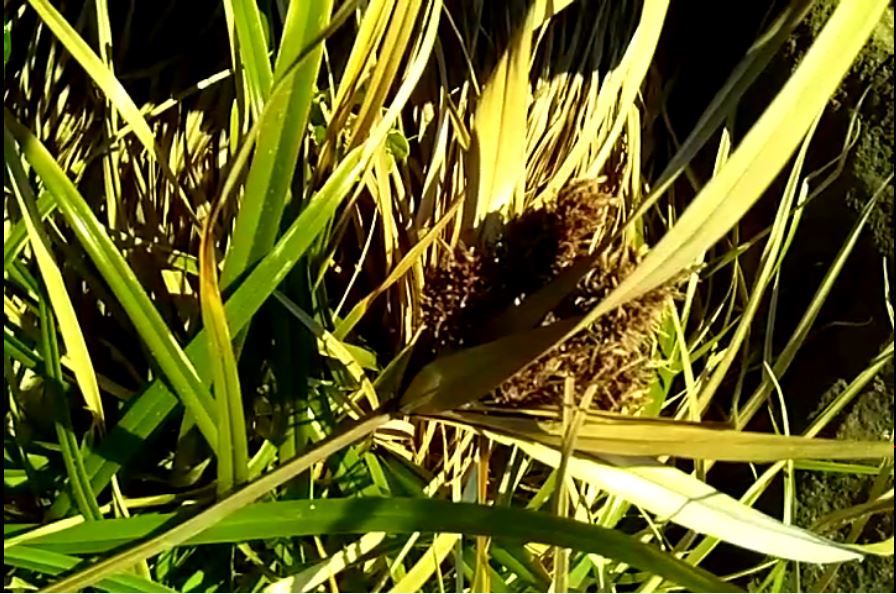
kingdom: Plantae
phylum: Tracheophyta
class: Liliopsida
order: Poales
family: Cyperaceae
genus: Cyperus
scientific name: Cyperus ustulatus
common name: Giant umbrella-sedge
